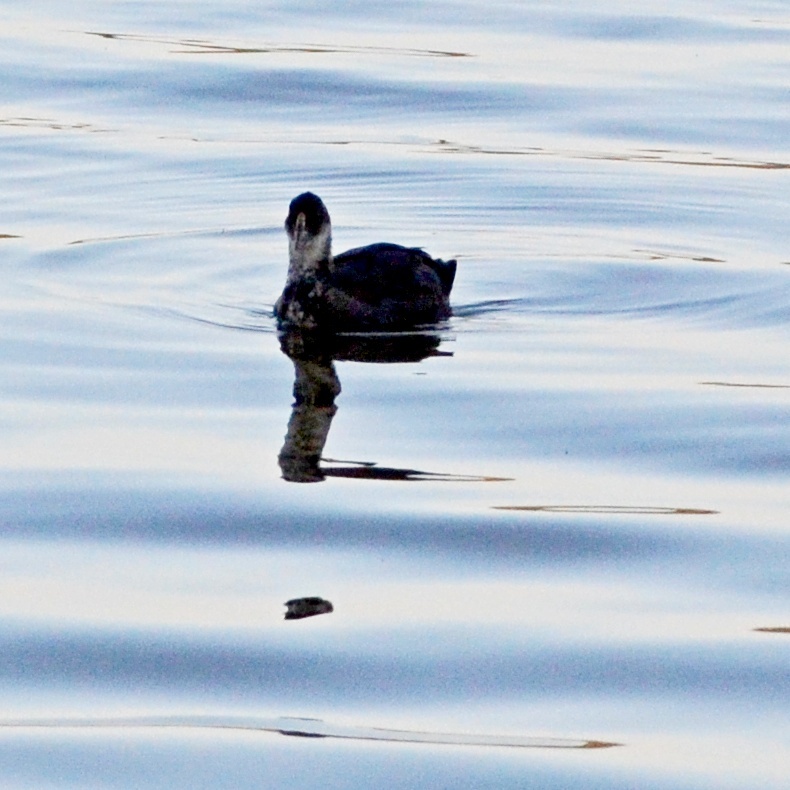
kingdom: Animalia
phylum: Chordata
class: Aves
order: Gruiformes
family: Rallidae
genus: Fulica
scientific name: Fulica atra
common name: Eurasian coot
